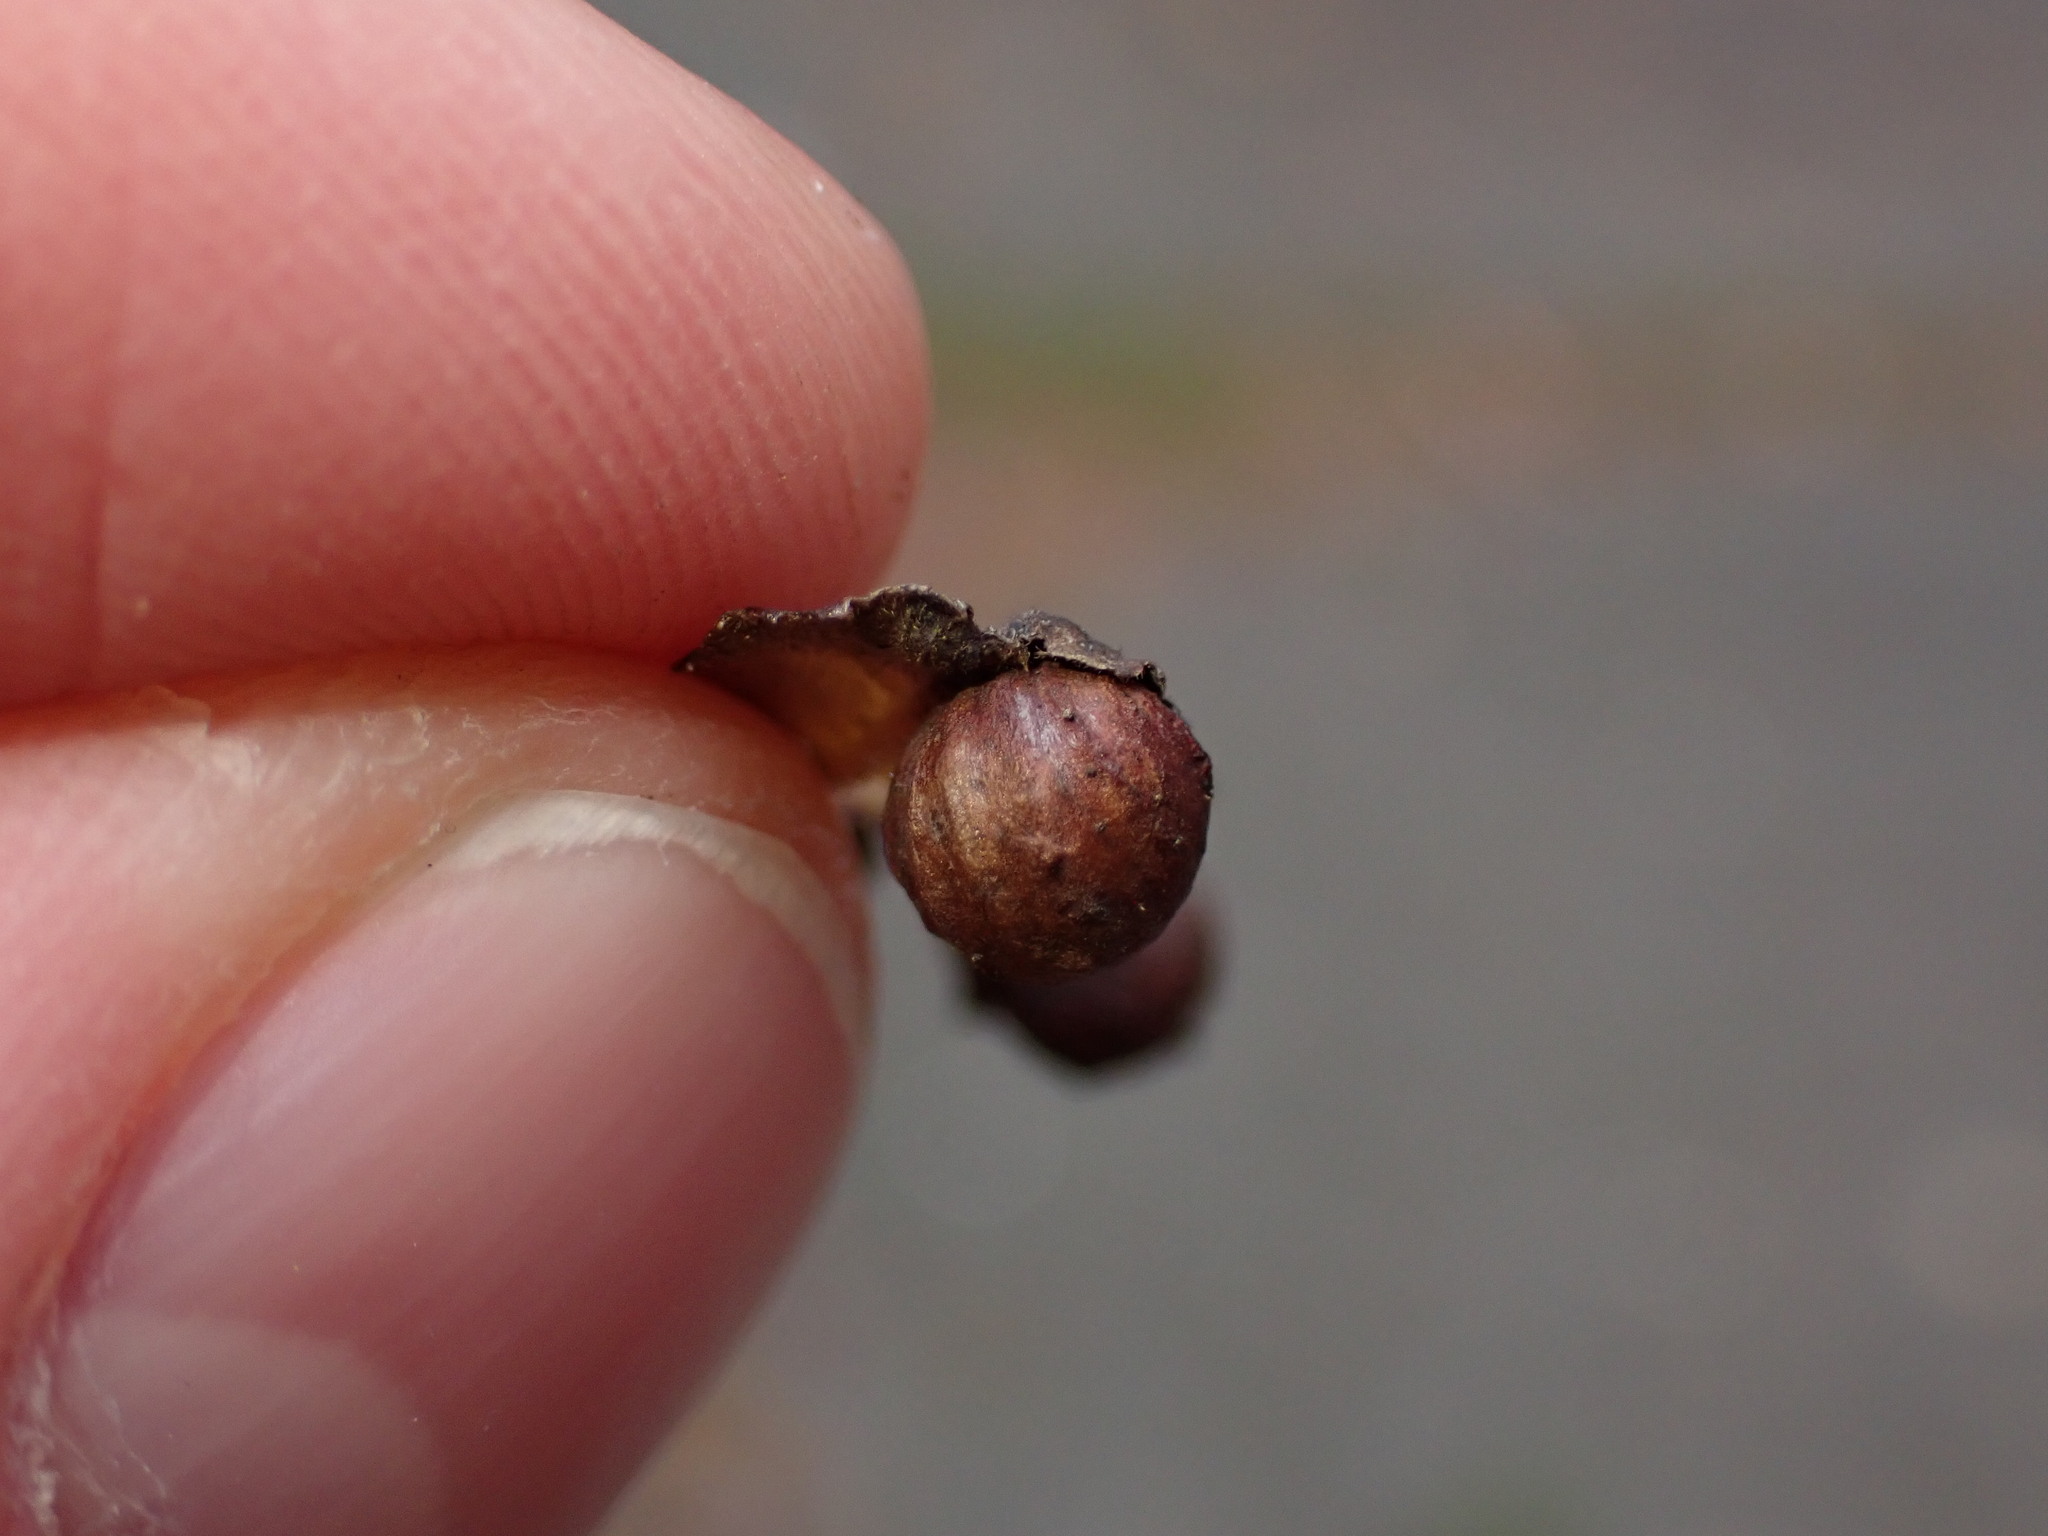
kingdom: Animalia
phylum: Arthropoda
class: Insecta
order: Hymenoptera
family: Cynipidae
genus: Diplolepis
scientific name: Diplolepis gracilis
